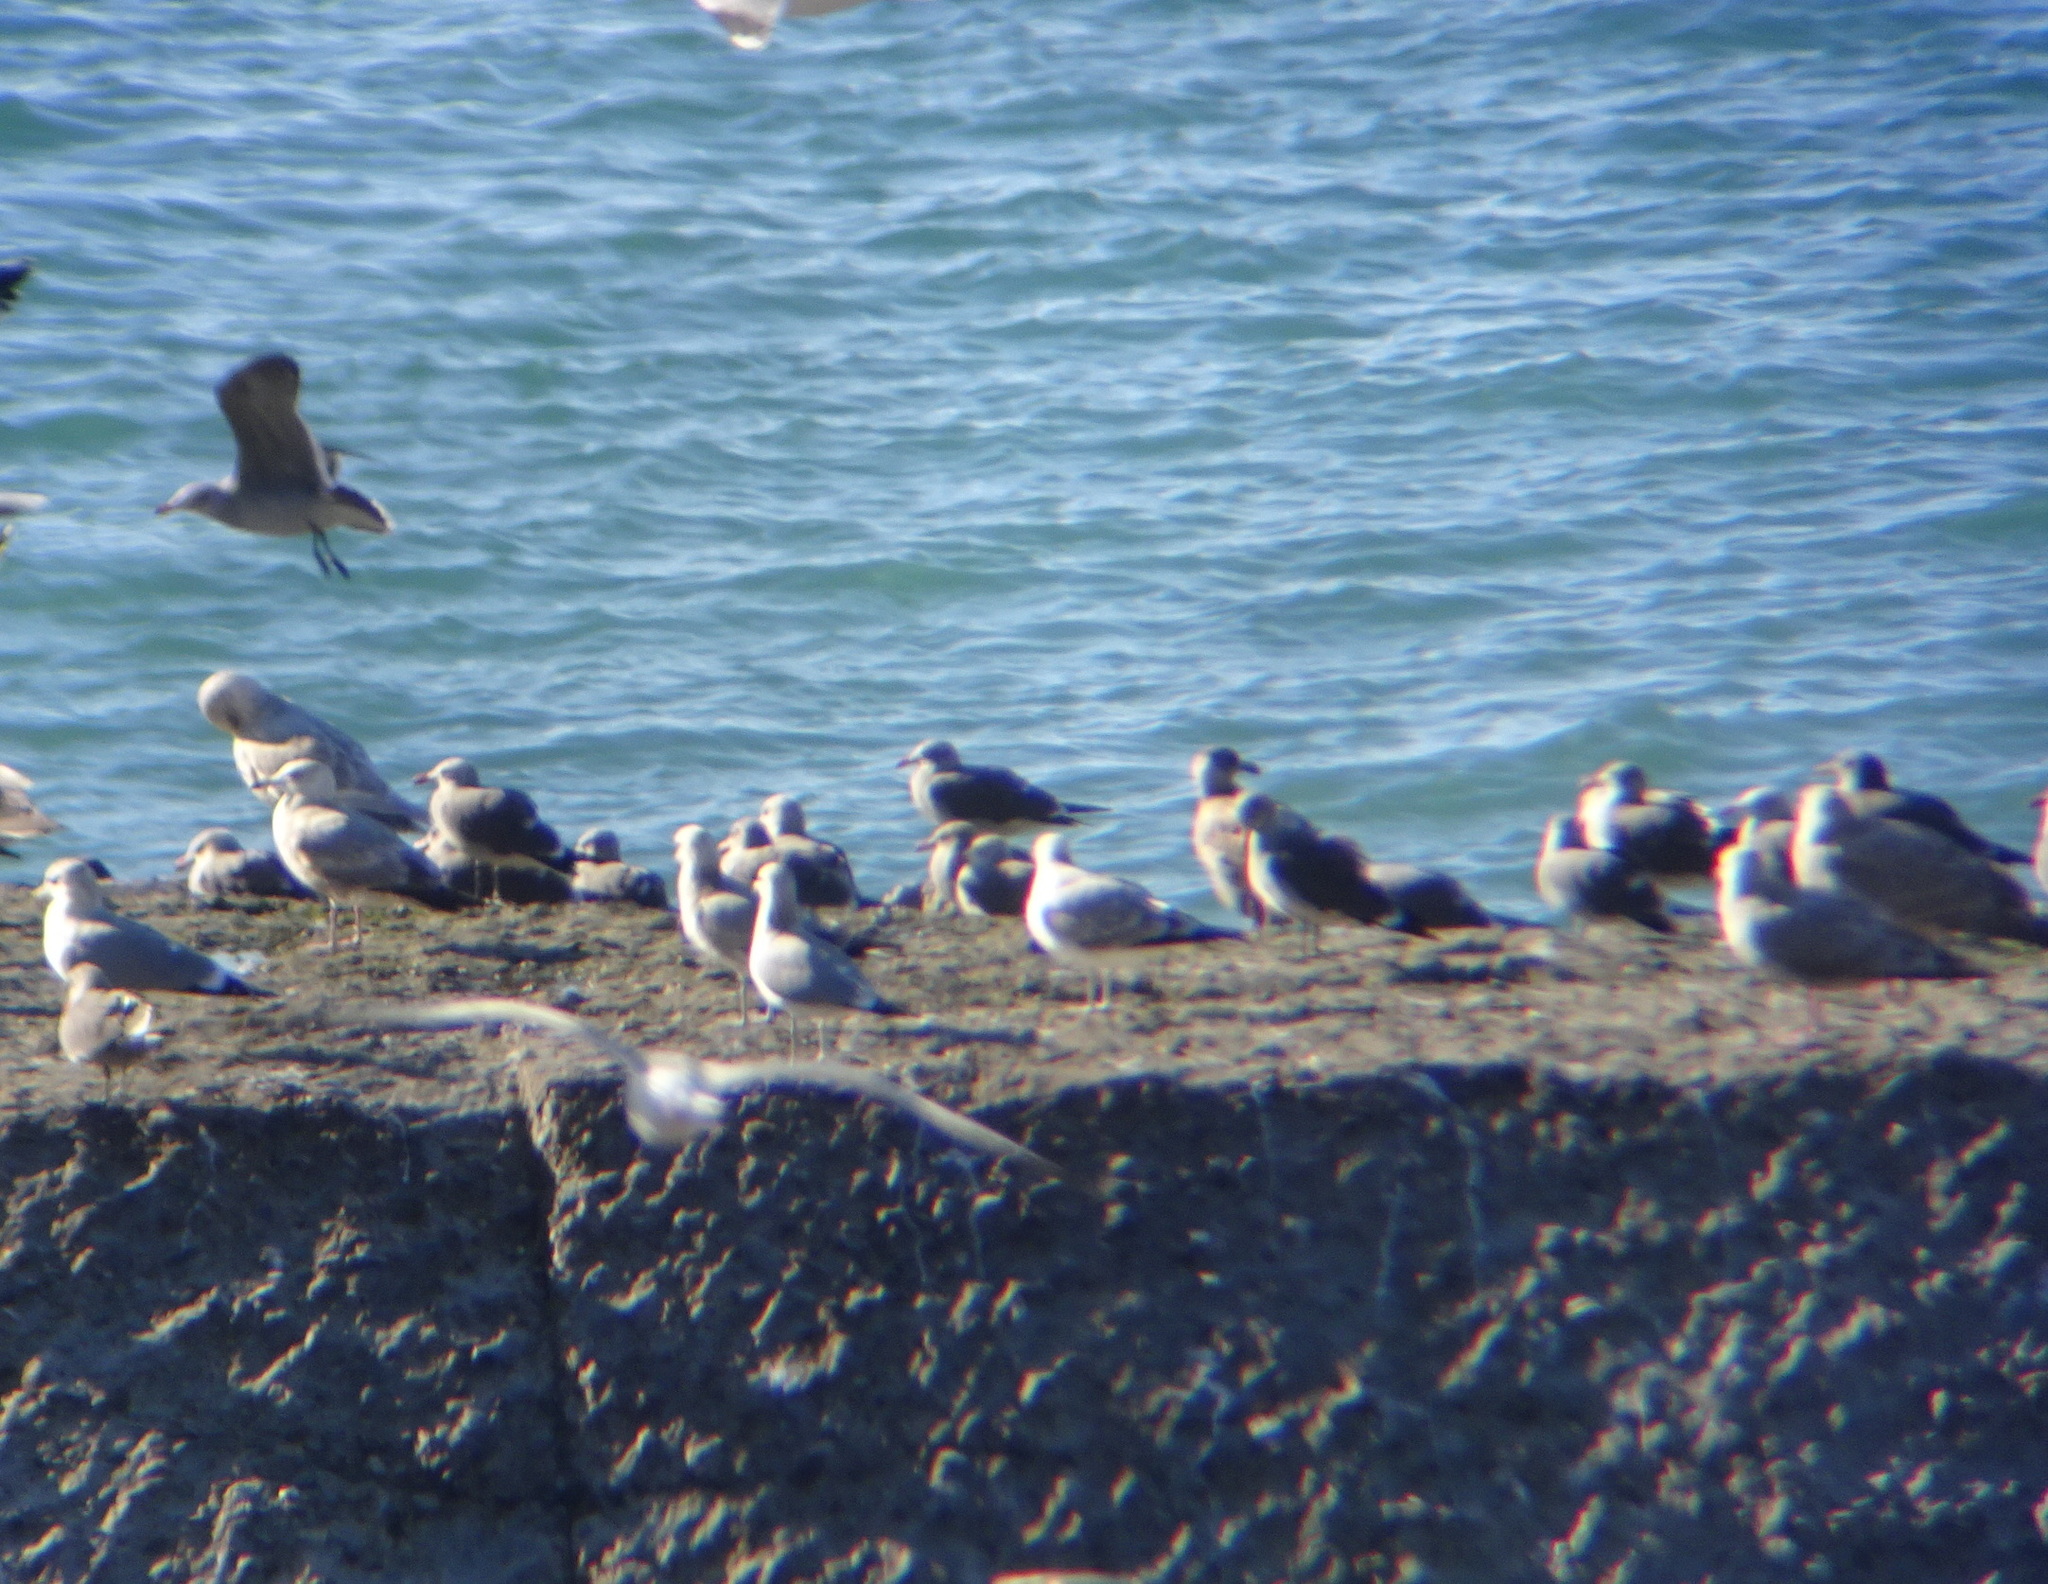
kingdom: Animalia
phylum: Chordata
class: Aves
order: Charadriiformes
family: Laridae
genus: Larus
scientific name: Larus heermanni
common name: Heermann's gull
